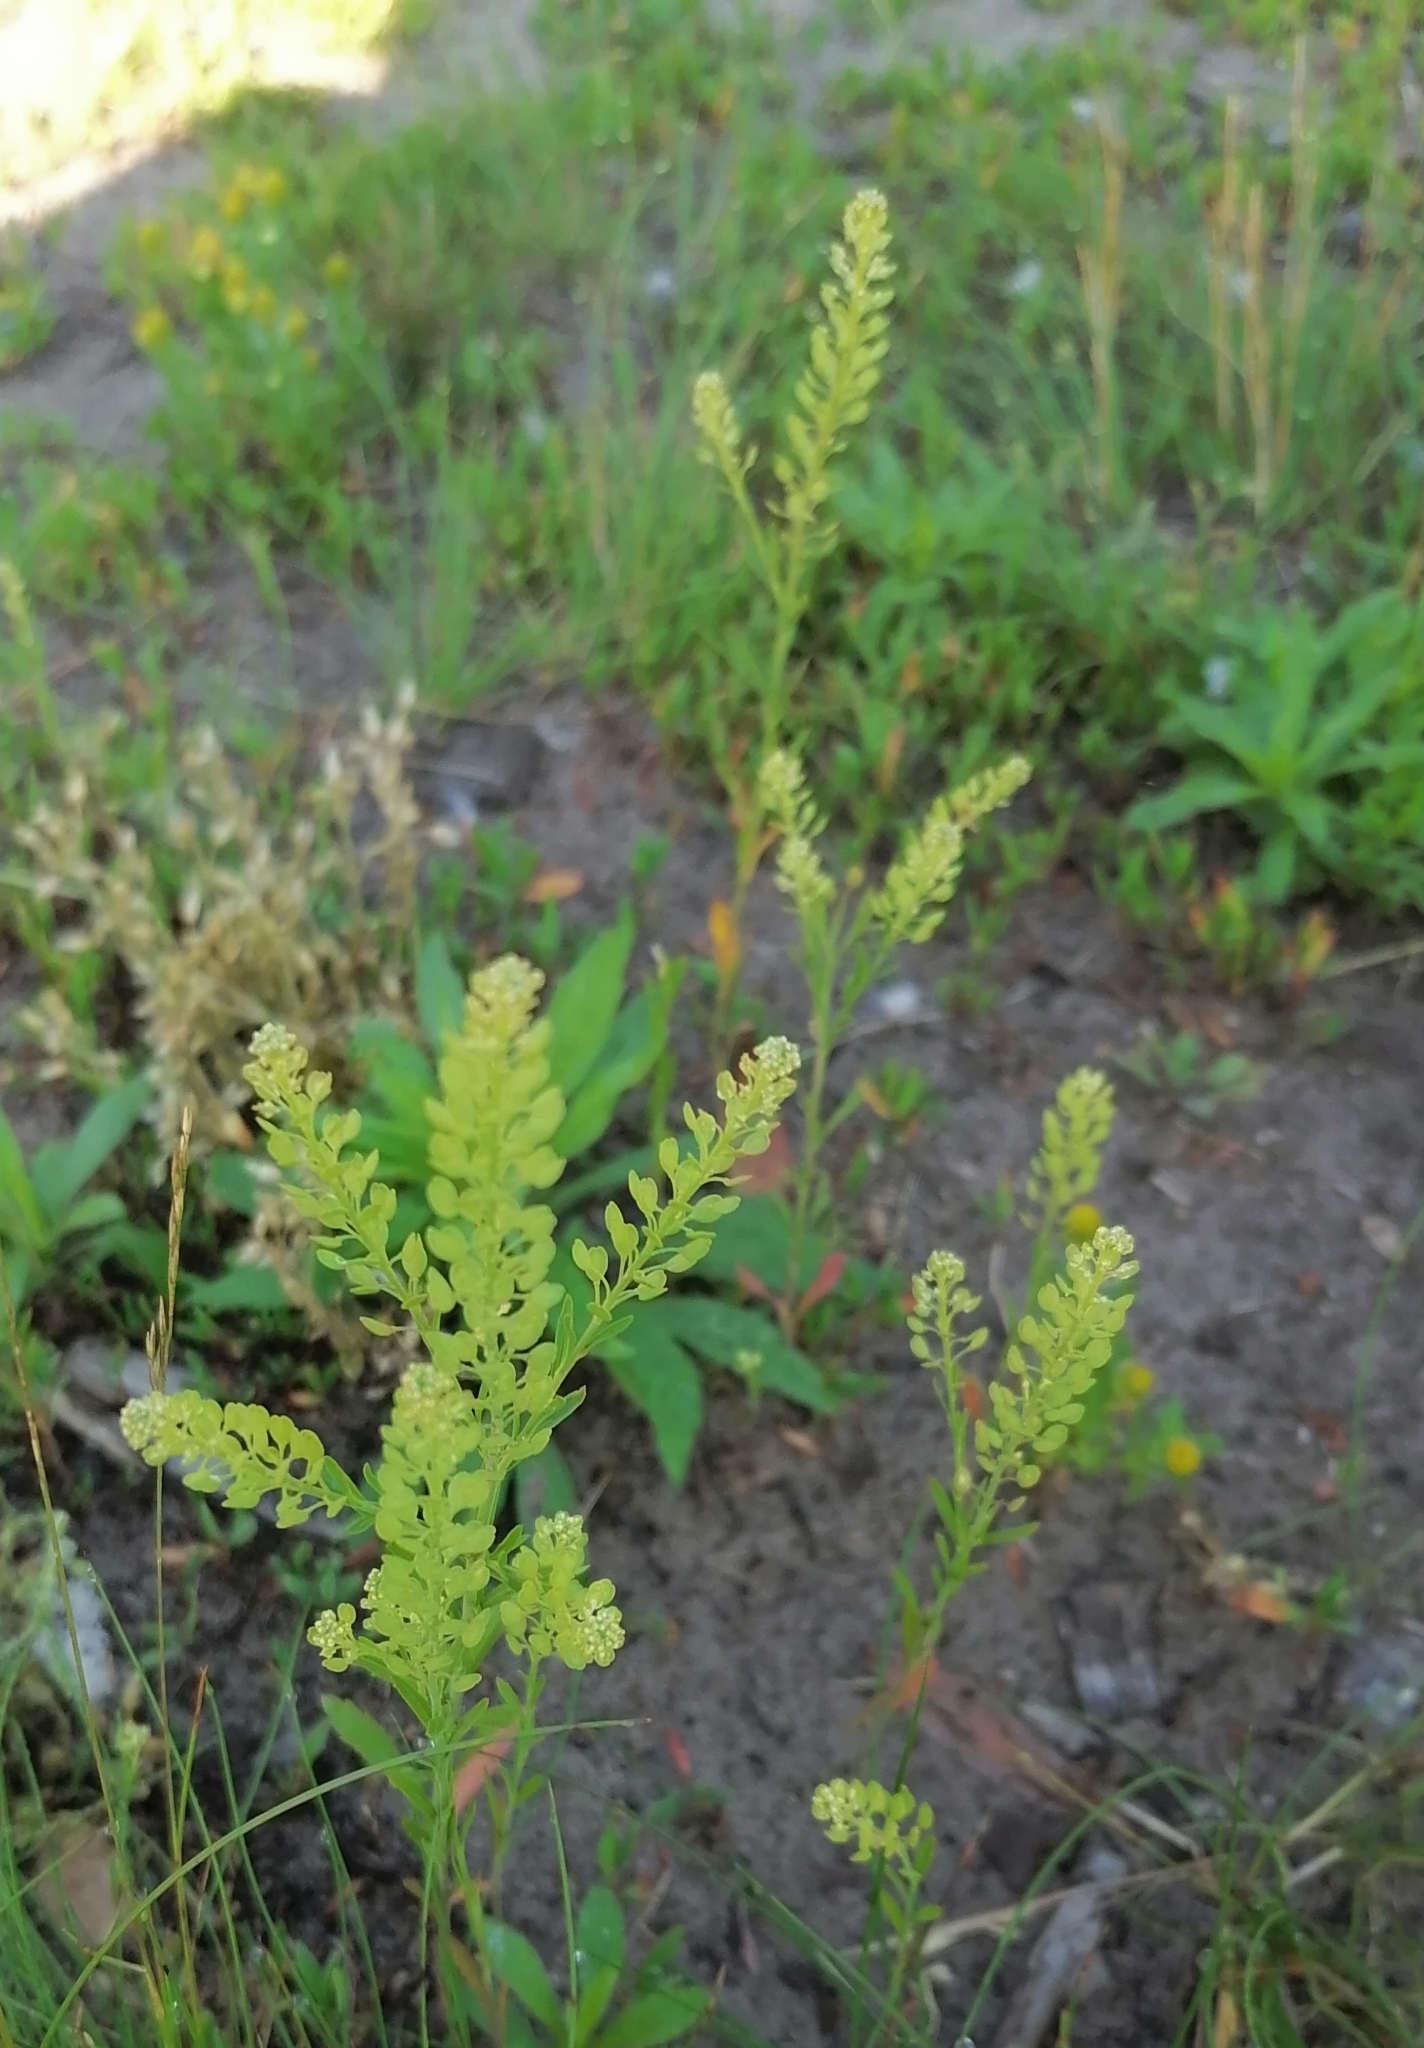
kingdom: Plantae
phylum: Tracheophyta
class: Magnoliopsida
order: Brassicales
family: Brassicaceae
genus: Lepidium
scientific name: Lepidium densiflorum
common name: Miner's pepperwort
